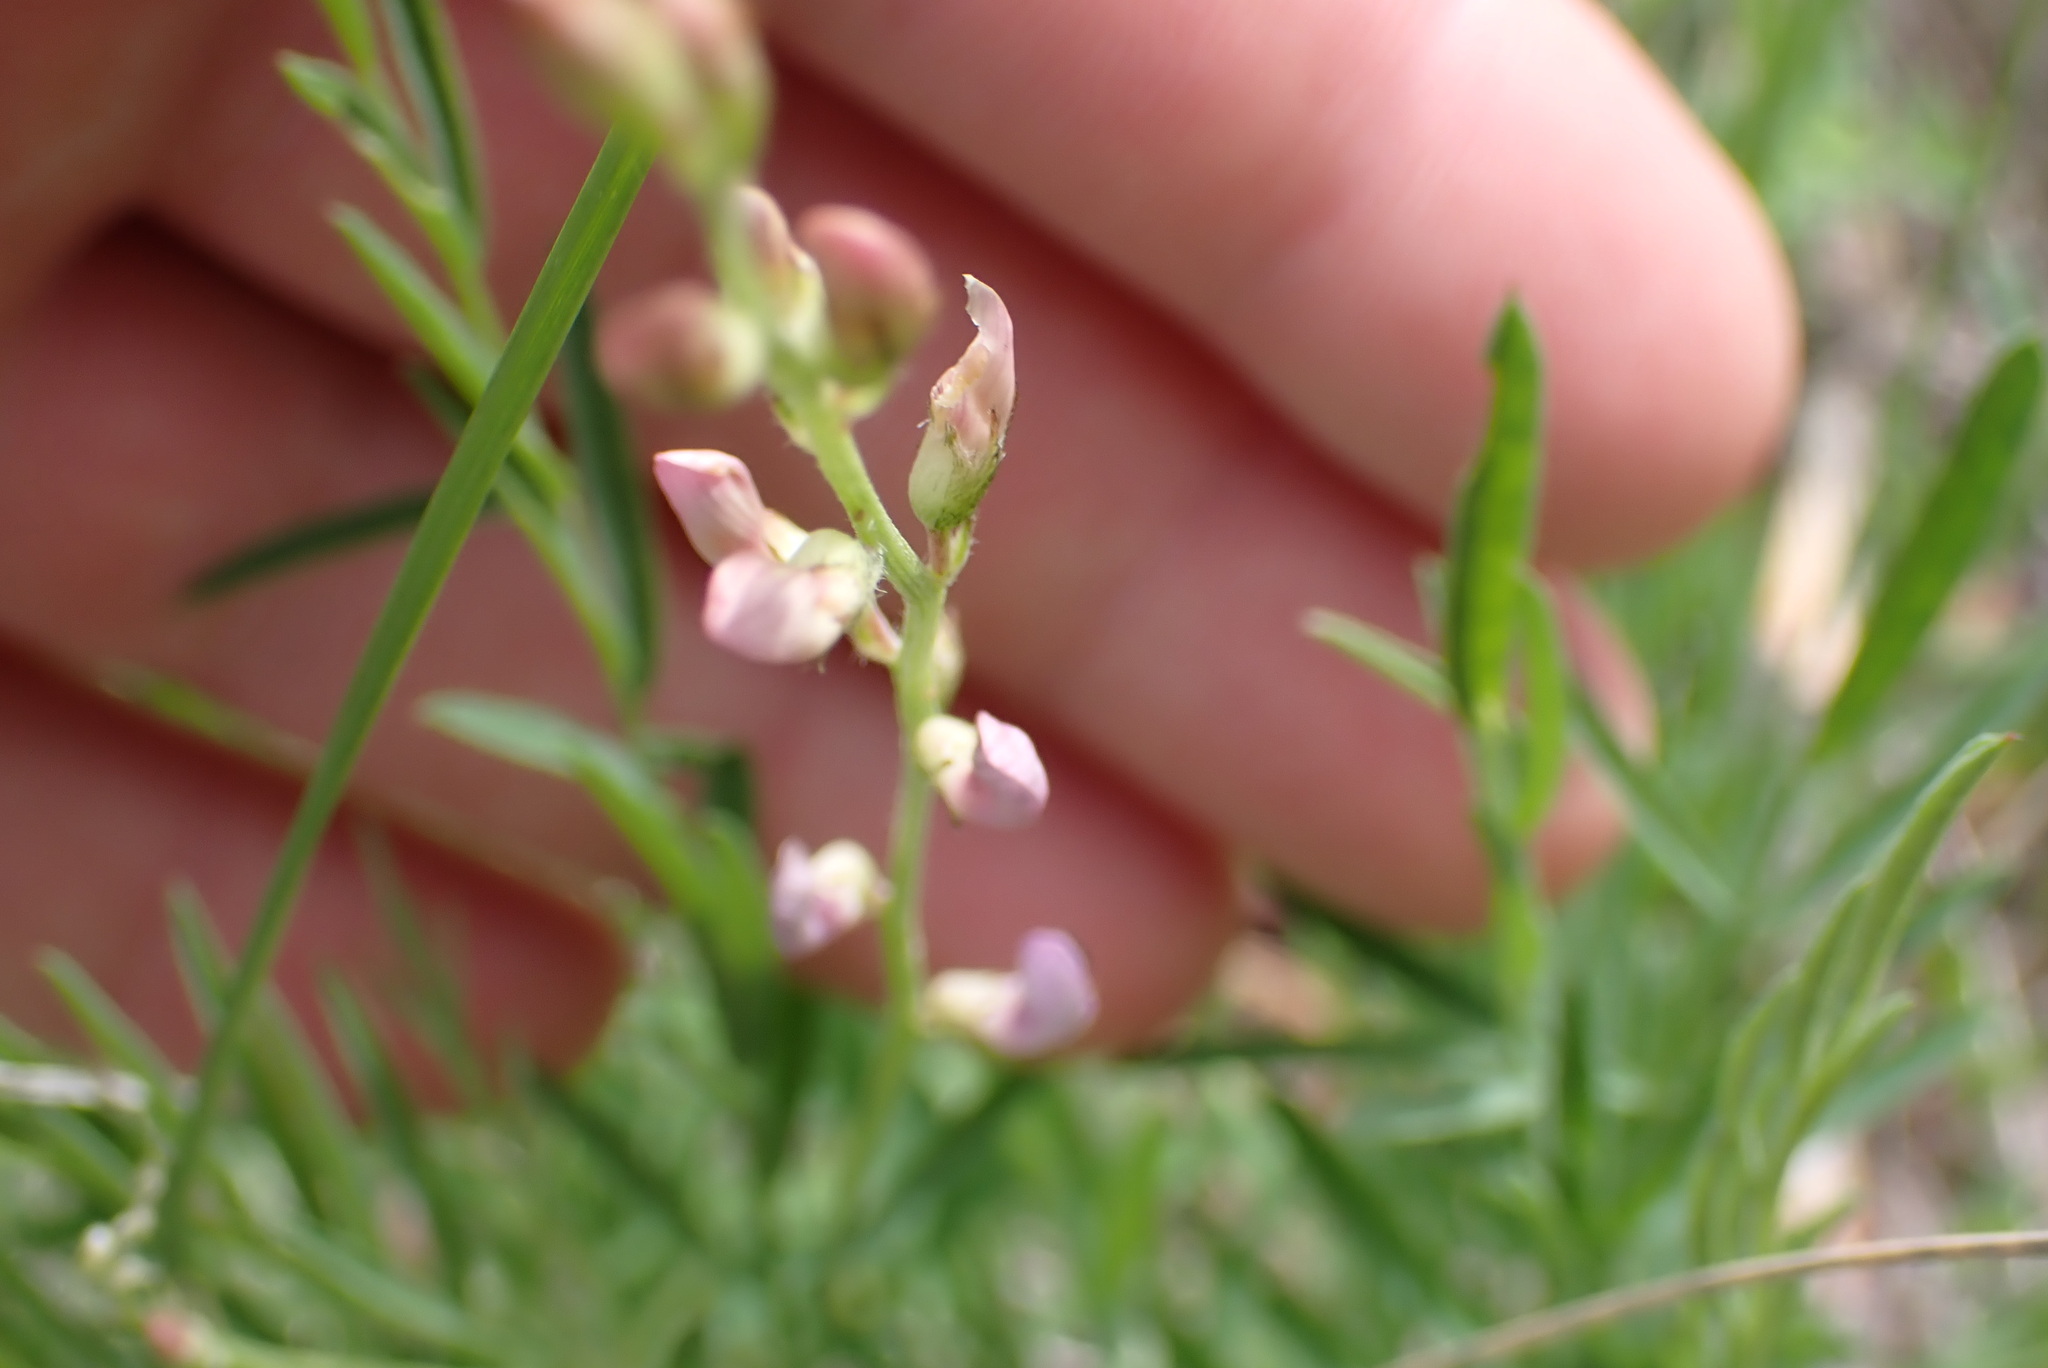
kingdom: Plantae
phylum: Tracheophyta
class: Magnoliopsida
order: Fabales
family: Fabaceae
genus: Astragalus
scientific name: Astragalus miser
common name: Timber milkvetch
